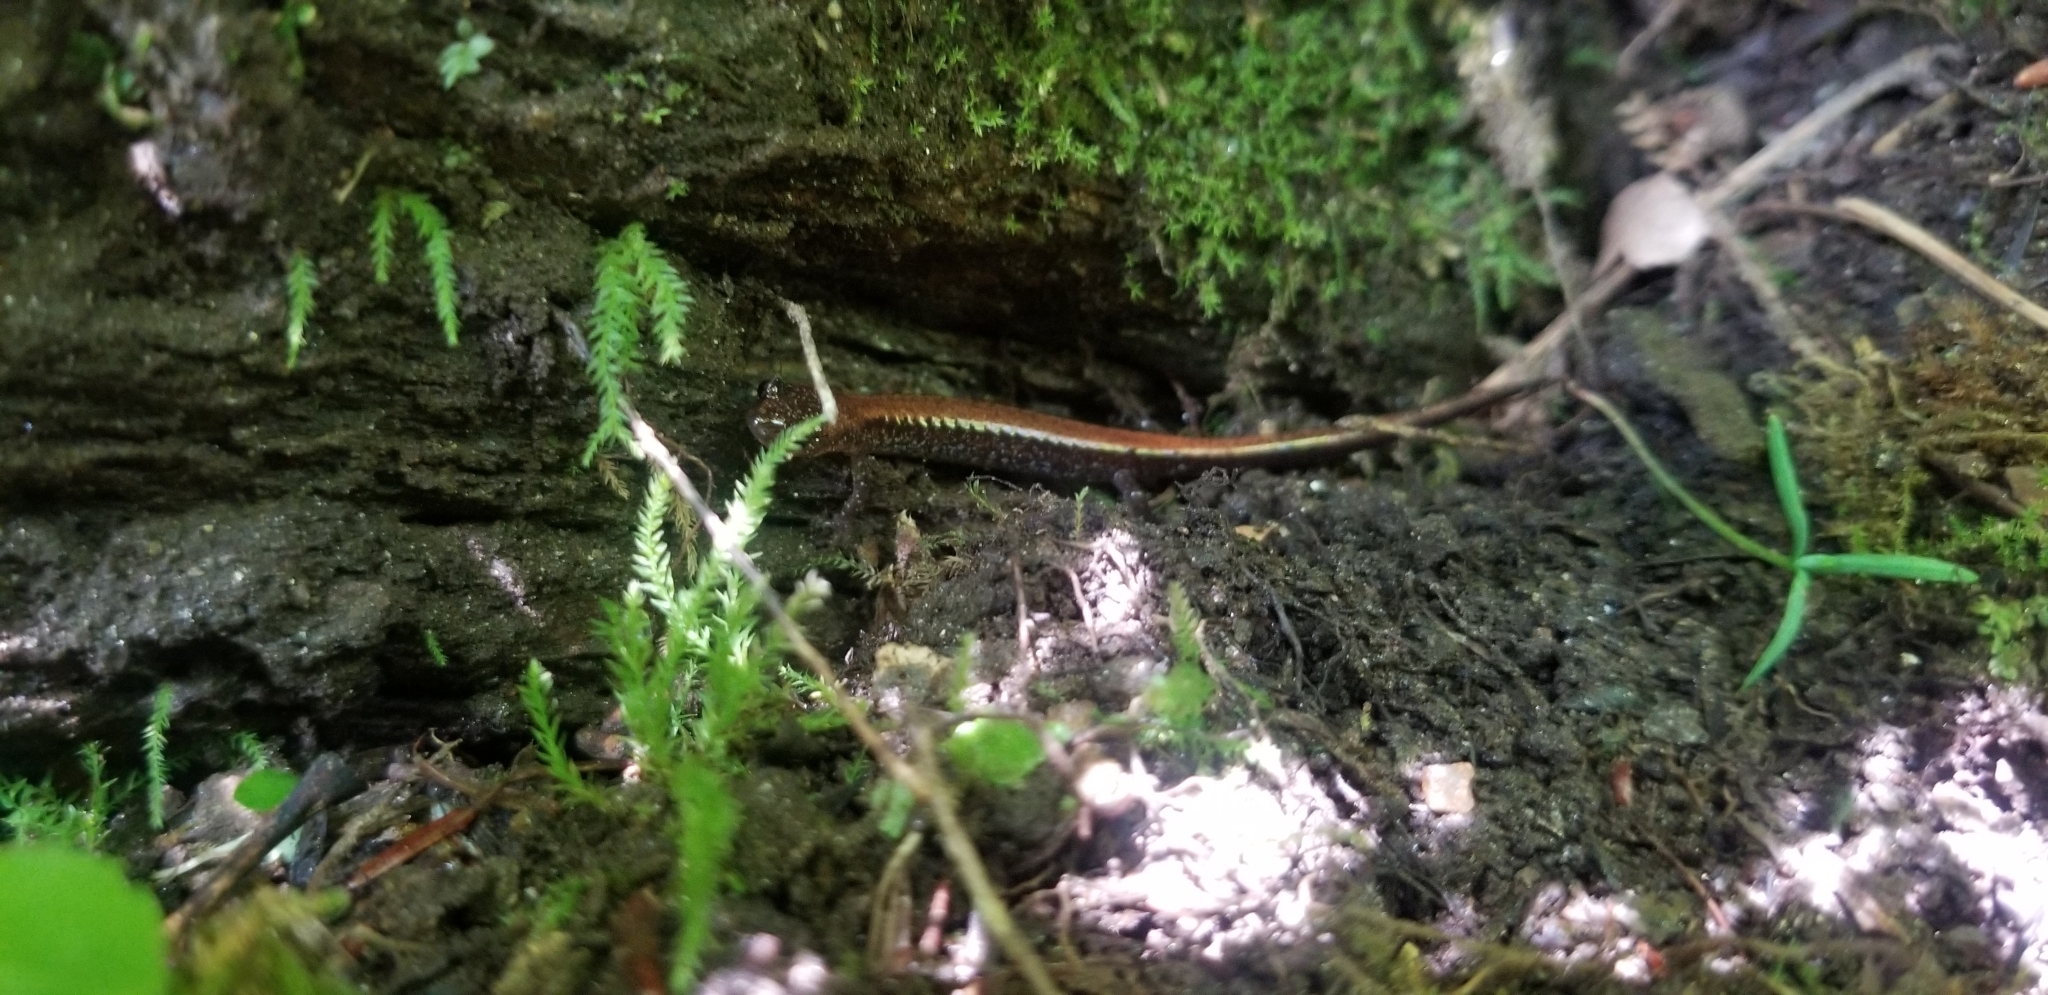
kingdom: Animalia
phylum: Chordata
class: Amphibia
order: Caudata
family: Plethodontidae
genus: Plethodon
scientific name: Plethodon cinereus
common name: Redback salamander
